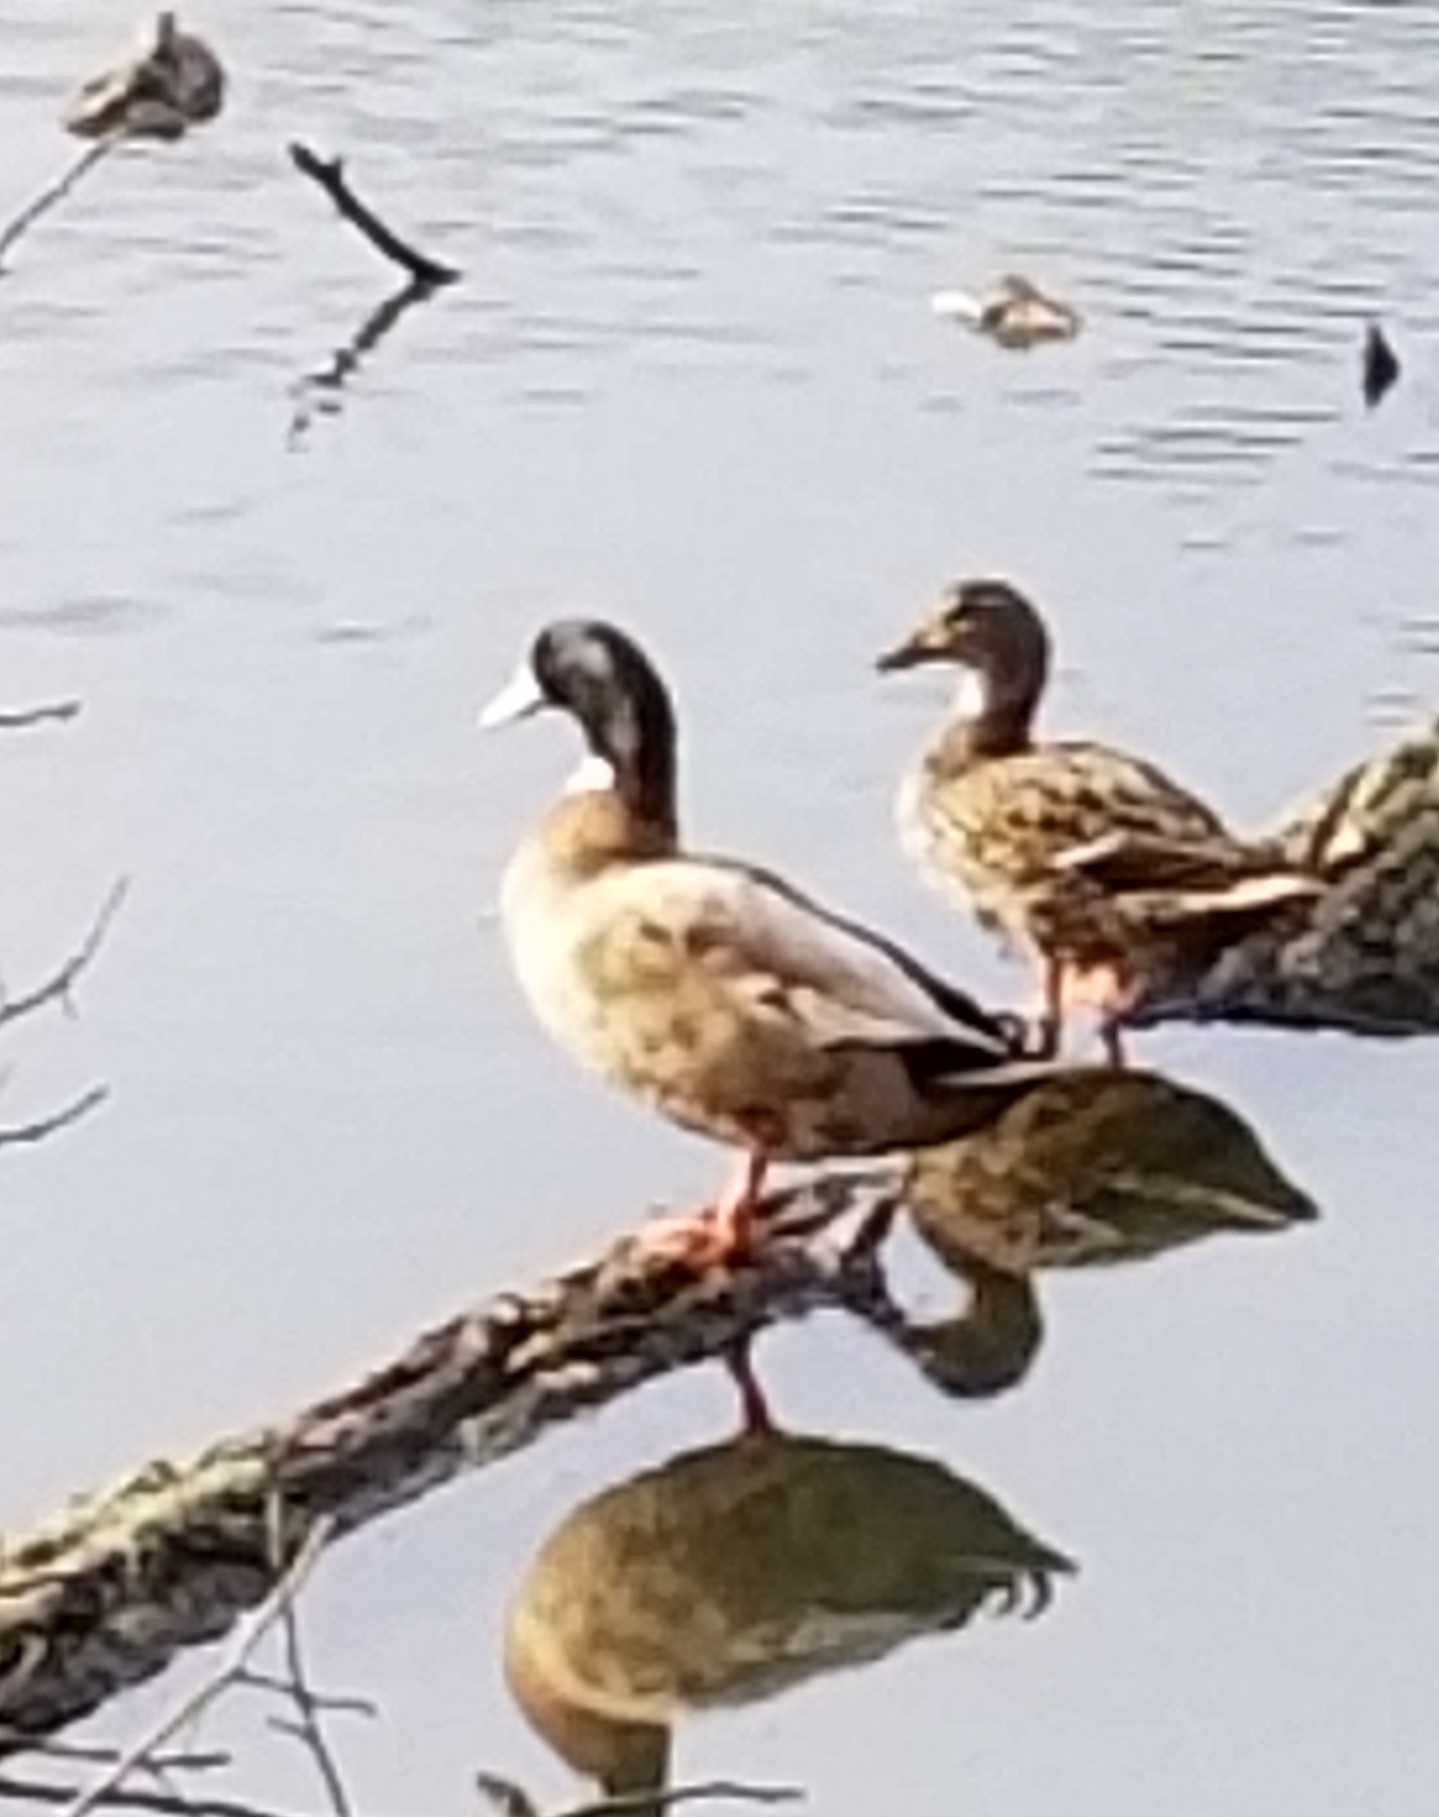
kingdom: Animalia
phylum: Chordata
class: Aves
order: Anseriformes
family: Anatidae
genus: Anas
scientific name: Anas platyrhynchos
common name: Mallard
